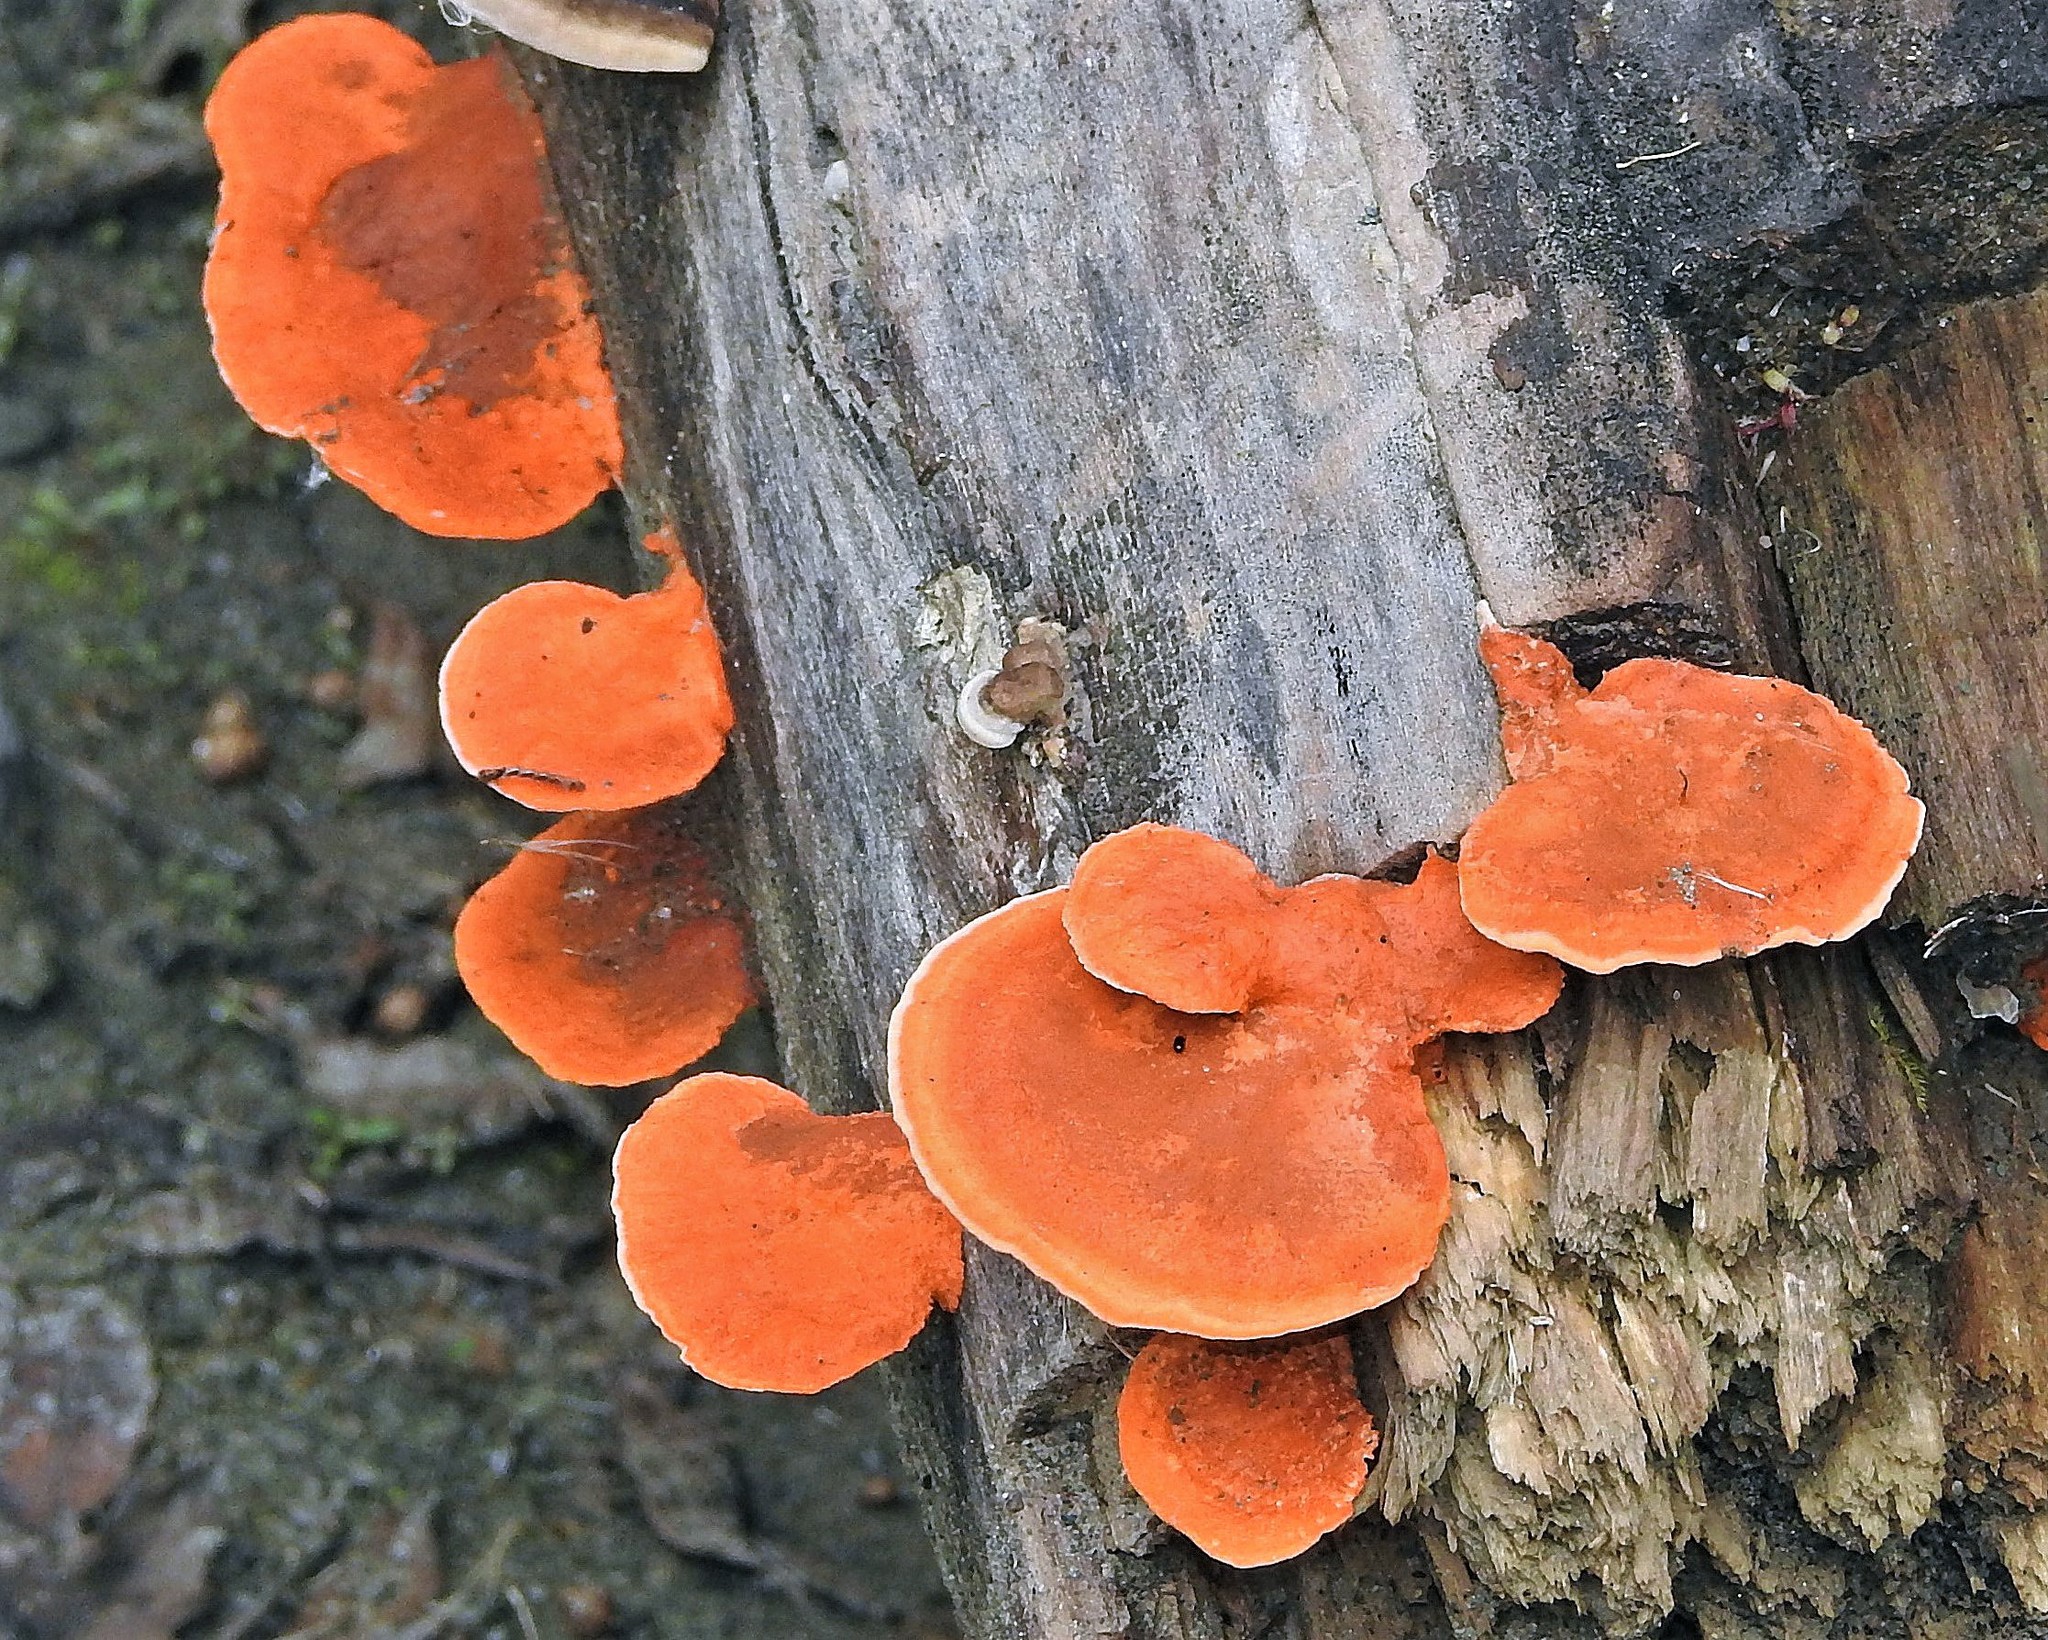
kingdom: Fungi
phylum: Basidiomycota
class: Agaricomycetes
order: Polyporales
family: Polyporaceae
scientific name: Polyporaceae
